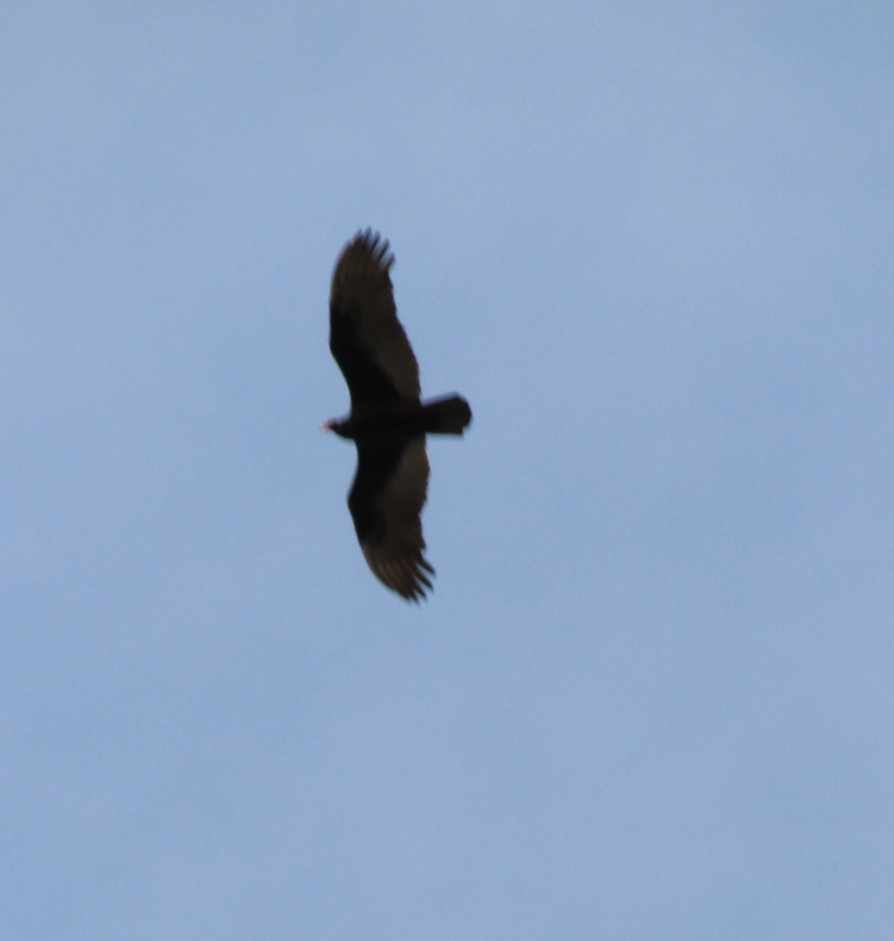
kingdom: Animalia
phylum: Chordata
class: Aves
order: Accipitriformes
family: Cathartidae
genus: Cathartes
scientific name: Cathartes aura
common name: Turkey vulture
